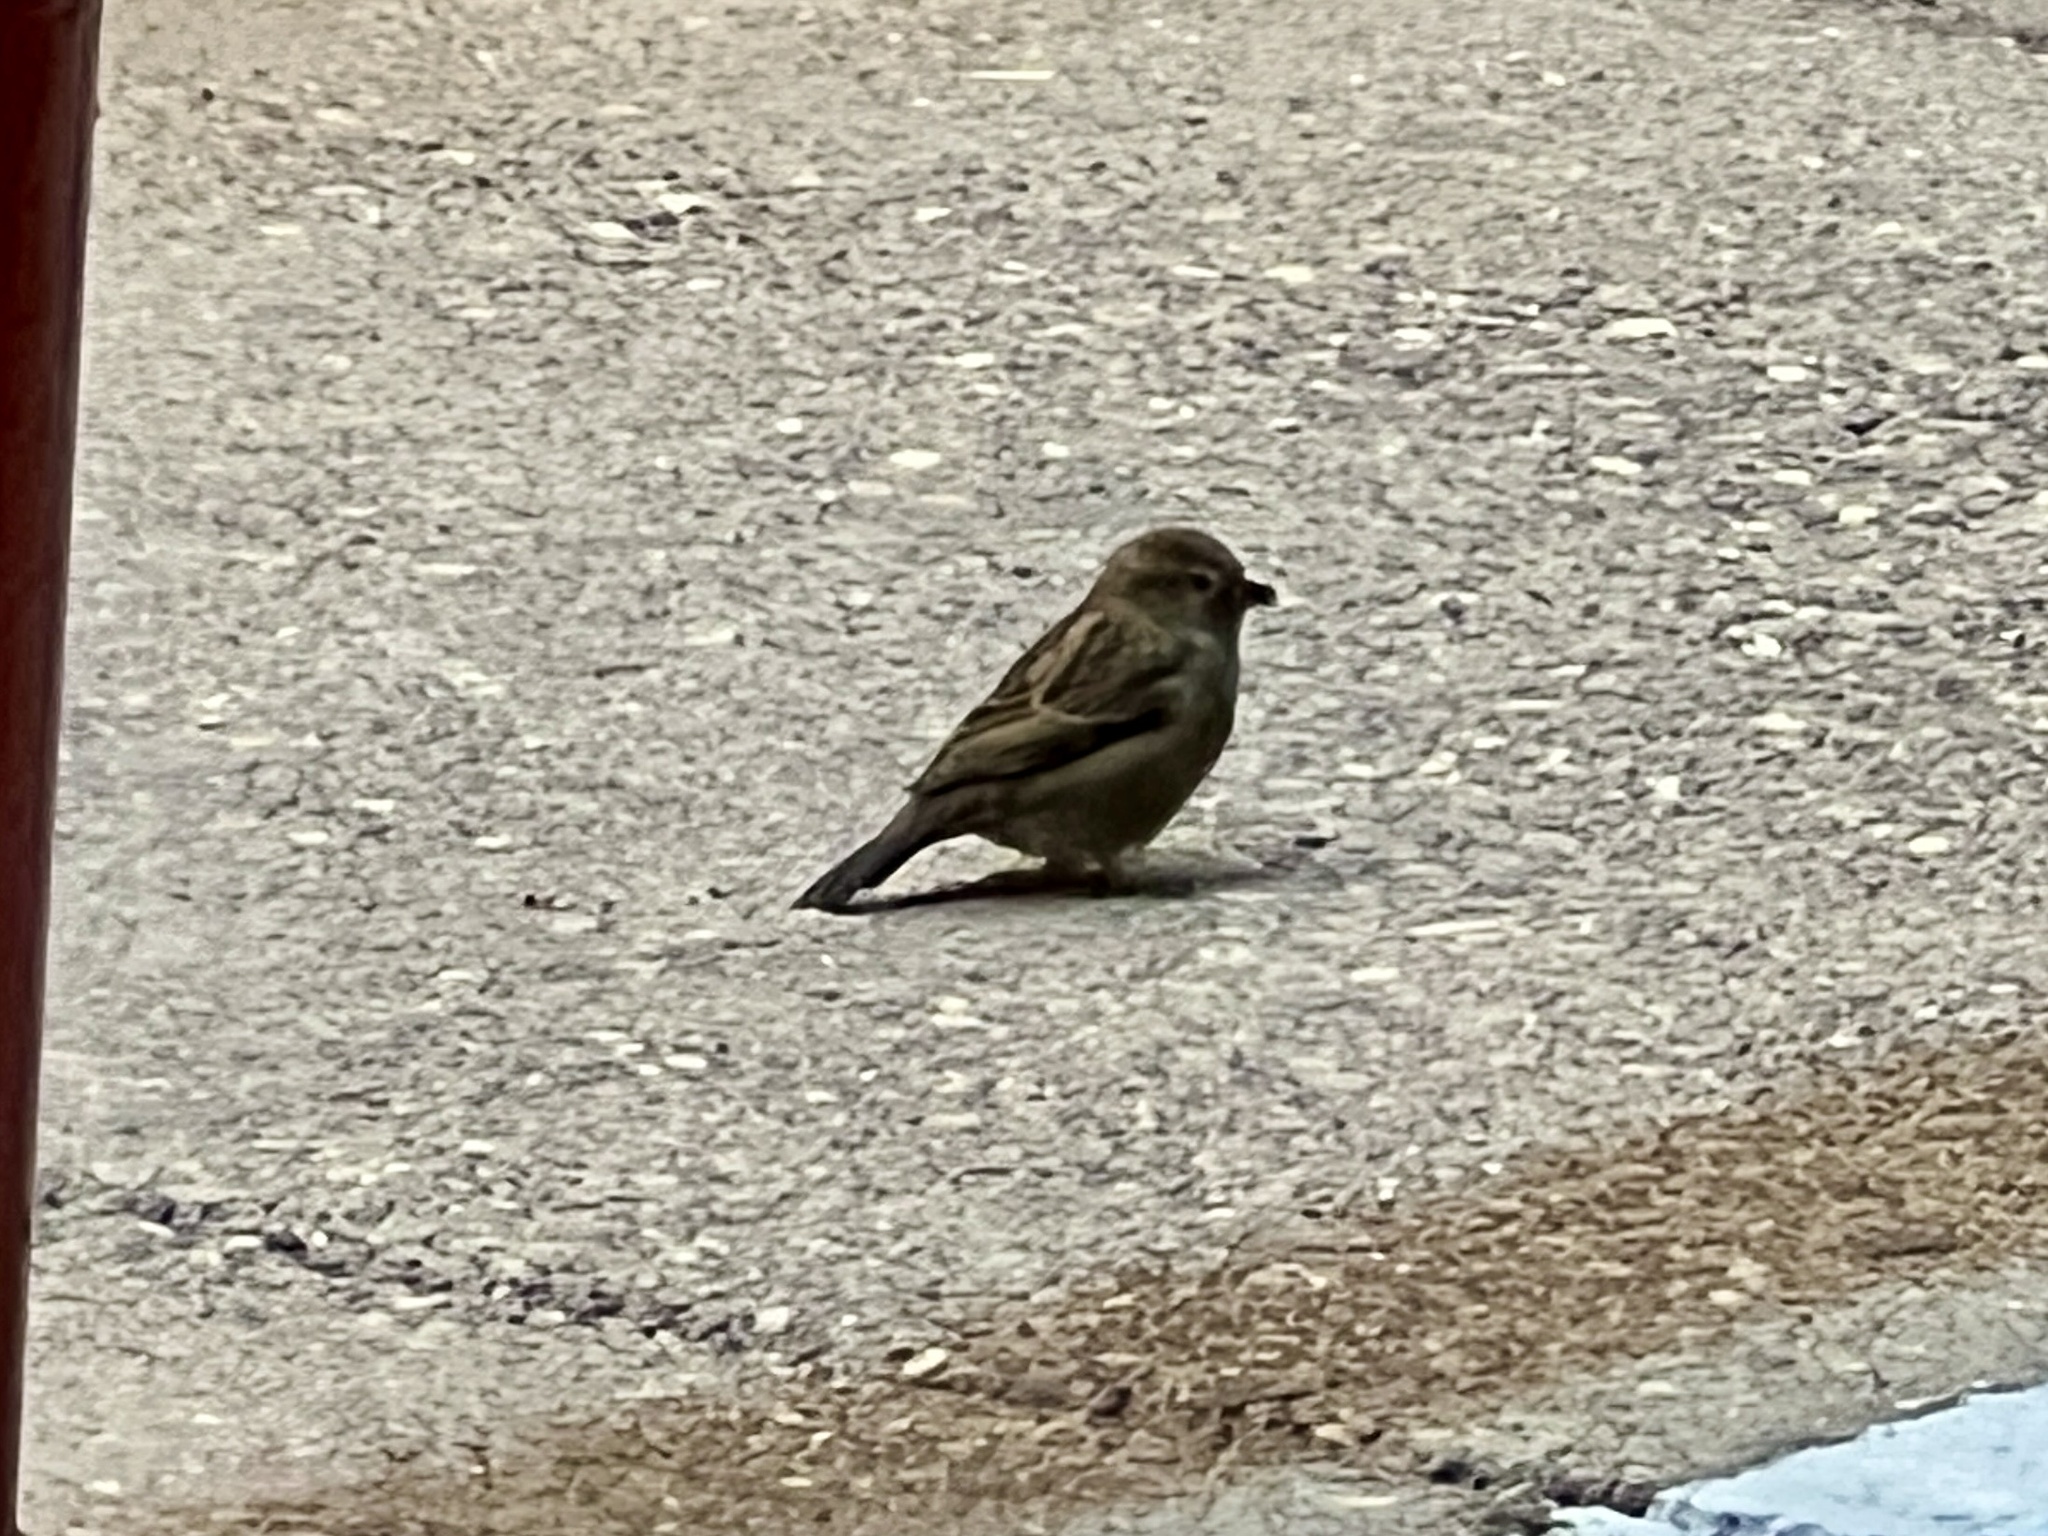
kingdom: Animalia
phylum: Chordata
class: Aves
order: Passeriformes
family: Passeridae
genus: Passer
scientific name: Passer domesticus
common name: House sparrow
